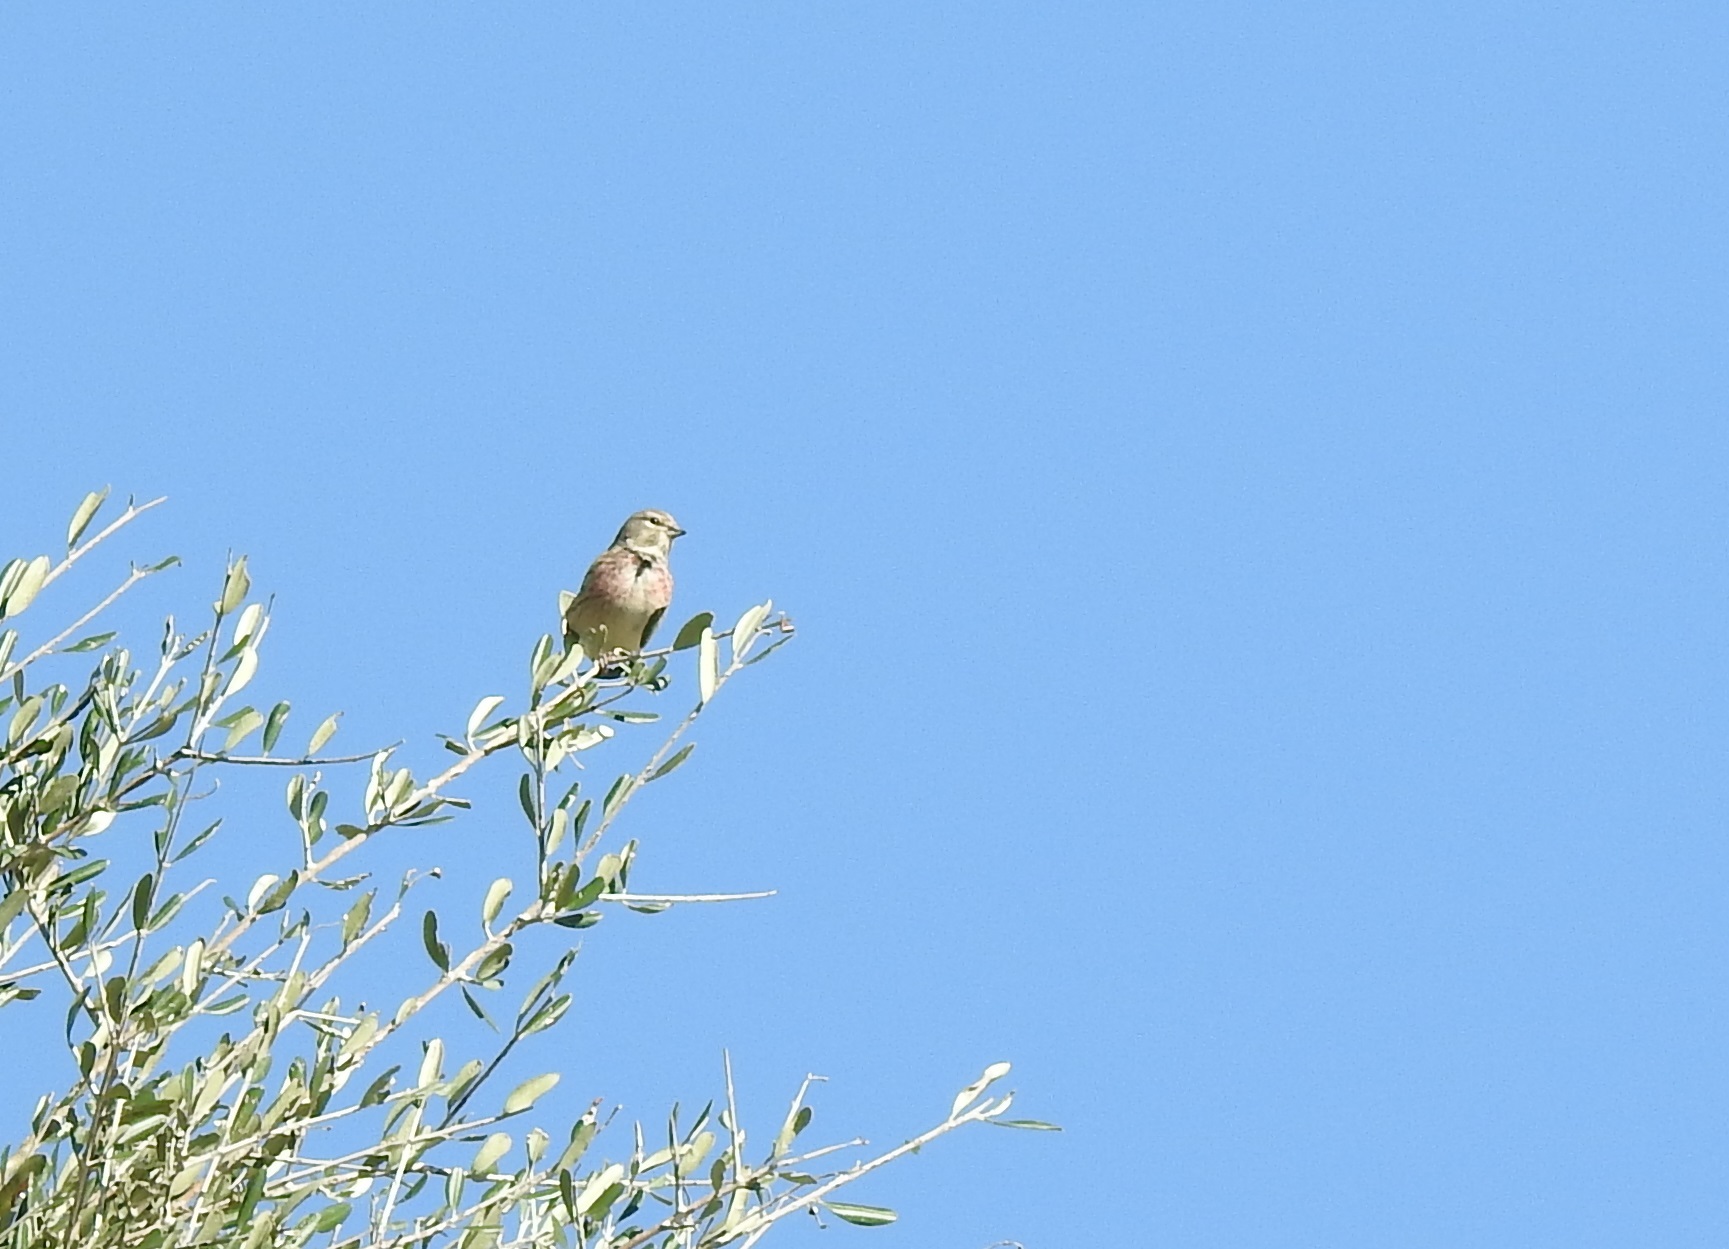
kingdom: Animalia
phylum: Chordata
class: Aves
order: Passeriformes
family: Fringillidae
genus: Linaria
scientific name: Linaria cannabina
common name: Common linnet
